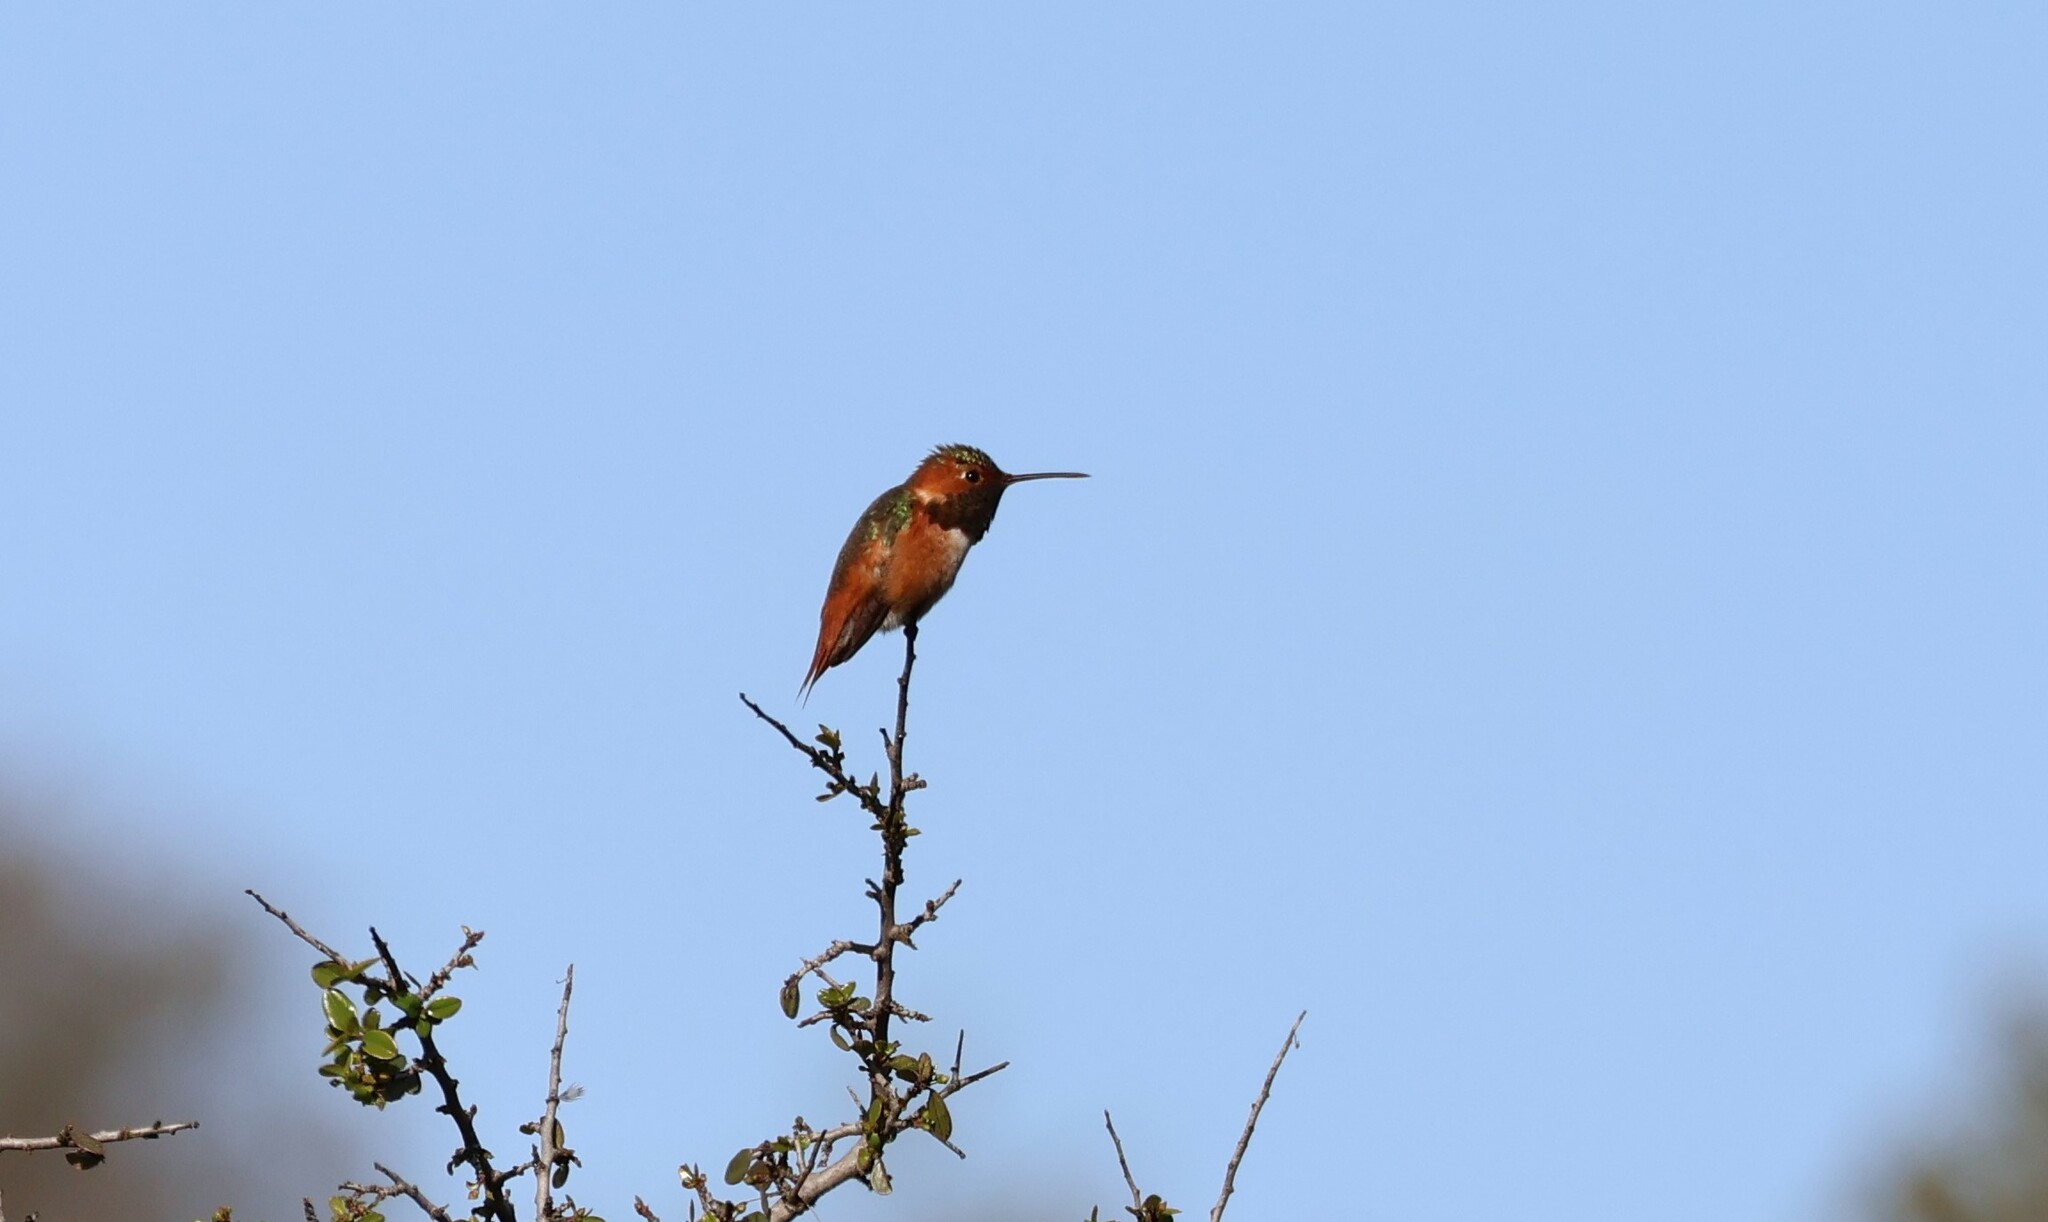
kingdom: Animalia
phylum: Chordata
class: Aves
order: Apodiformes
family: Trochilidae
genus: Selasphorus
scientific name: Selasphorus sasin
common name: Allen's hummingbird
